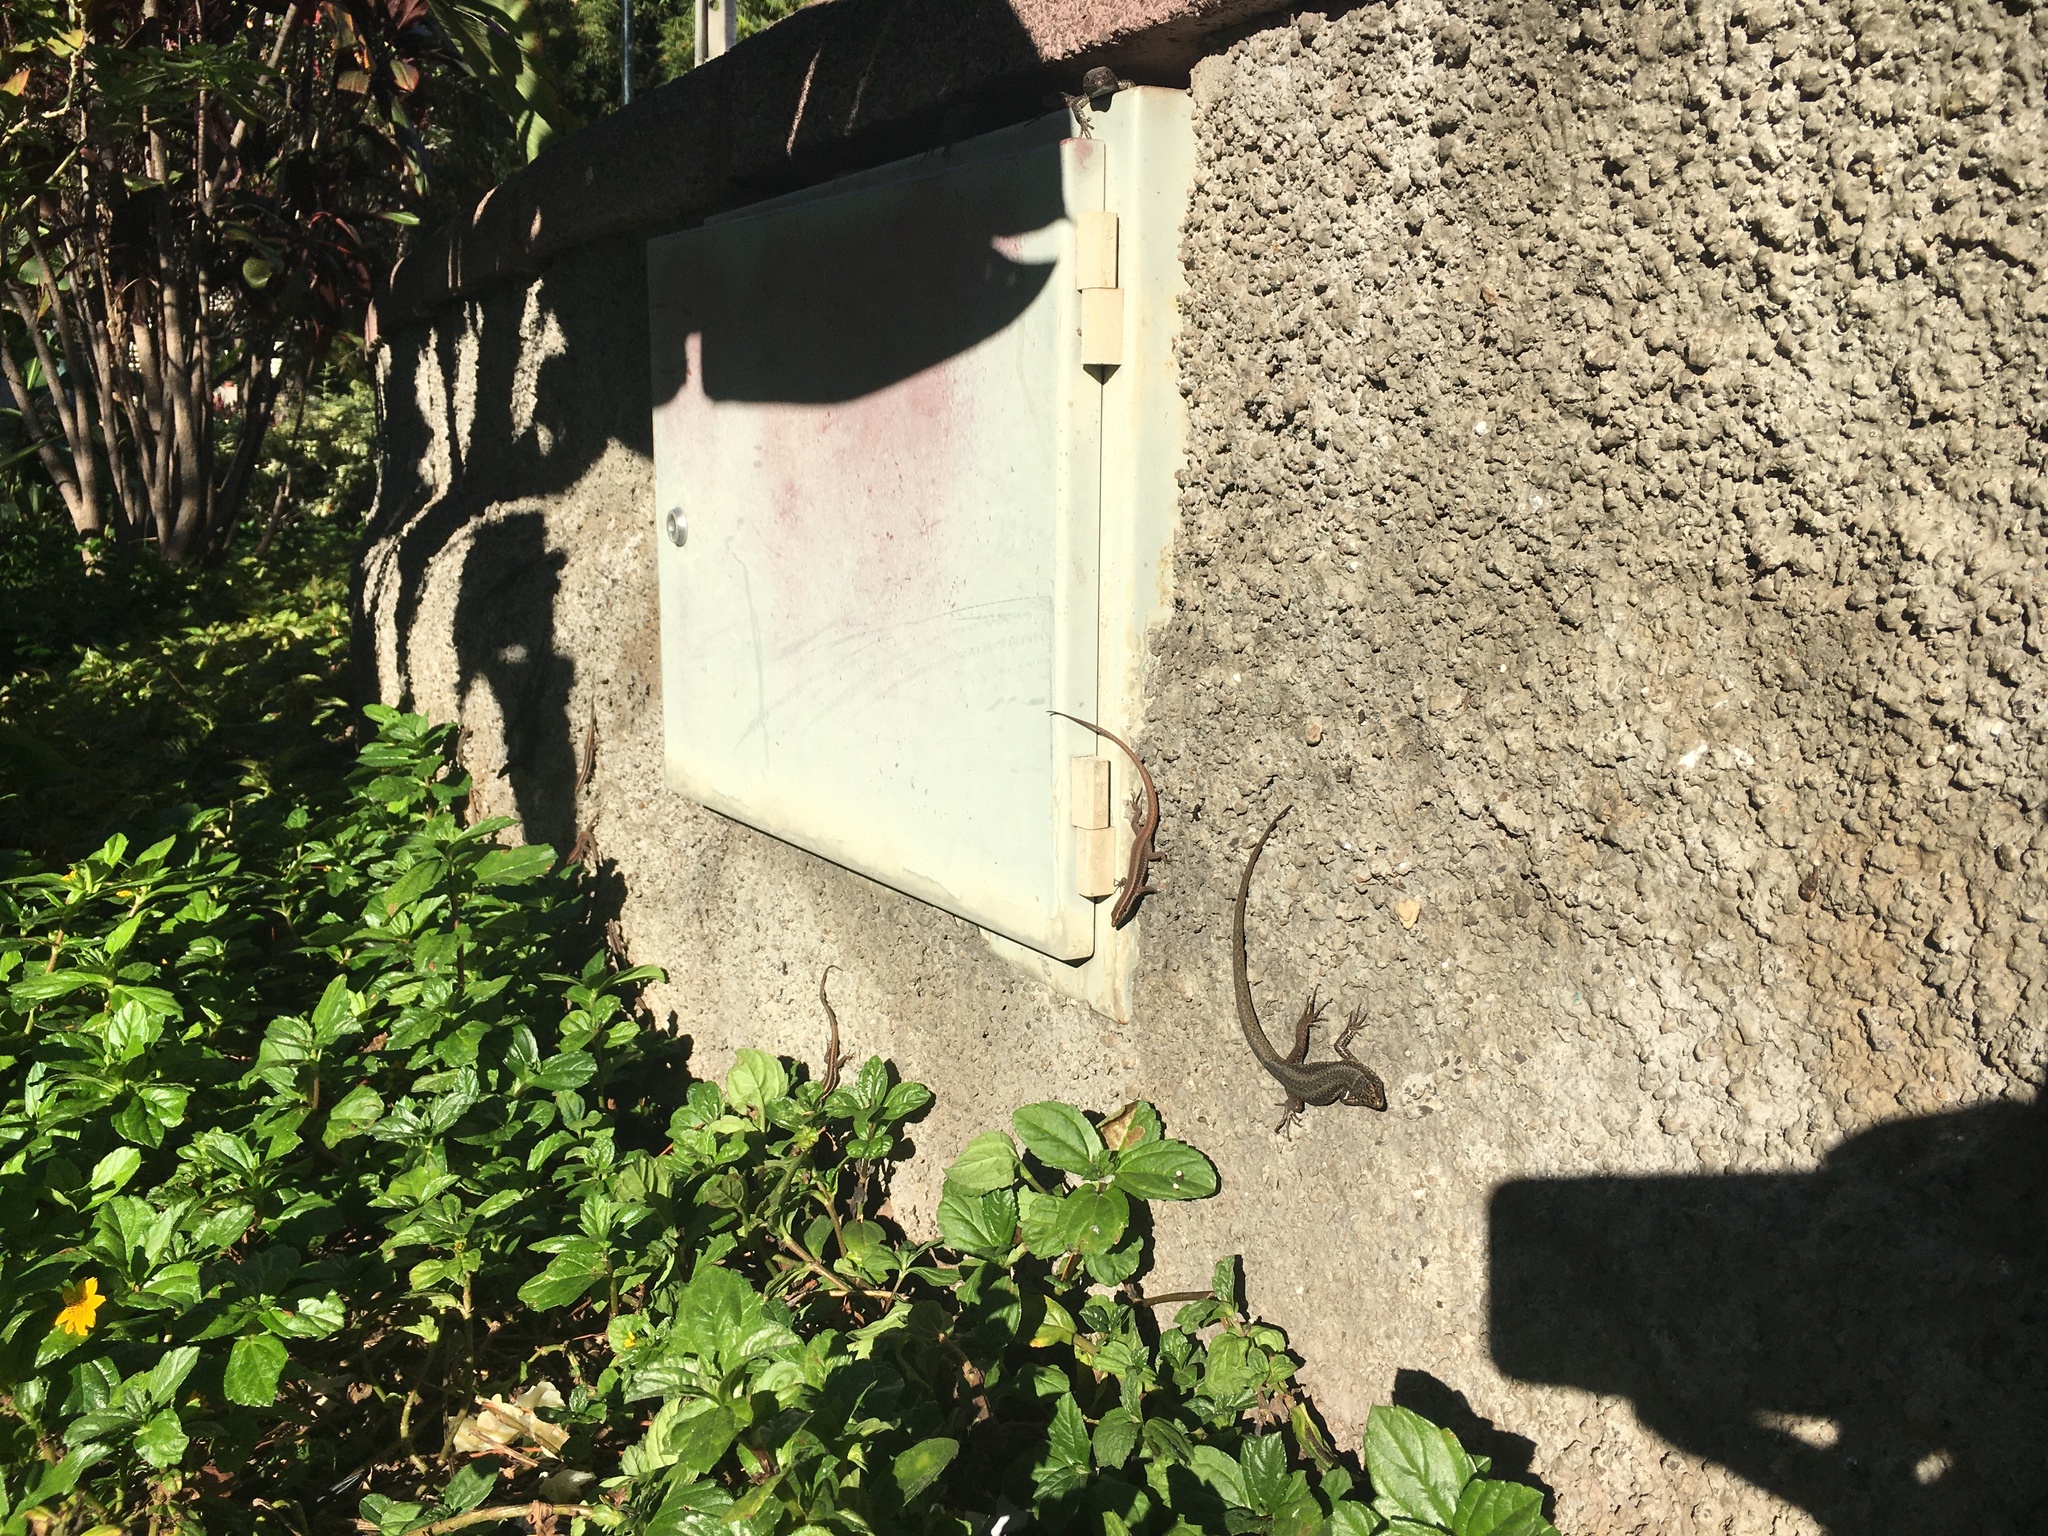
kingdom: Animalia
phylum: Chordata
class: Squamata
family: Lacertidae
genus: Teira
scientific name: Teira dugesii
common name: Madeira lizard
